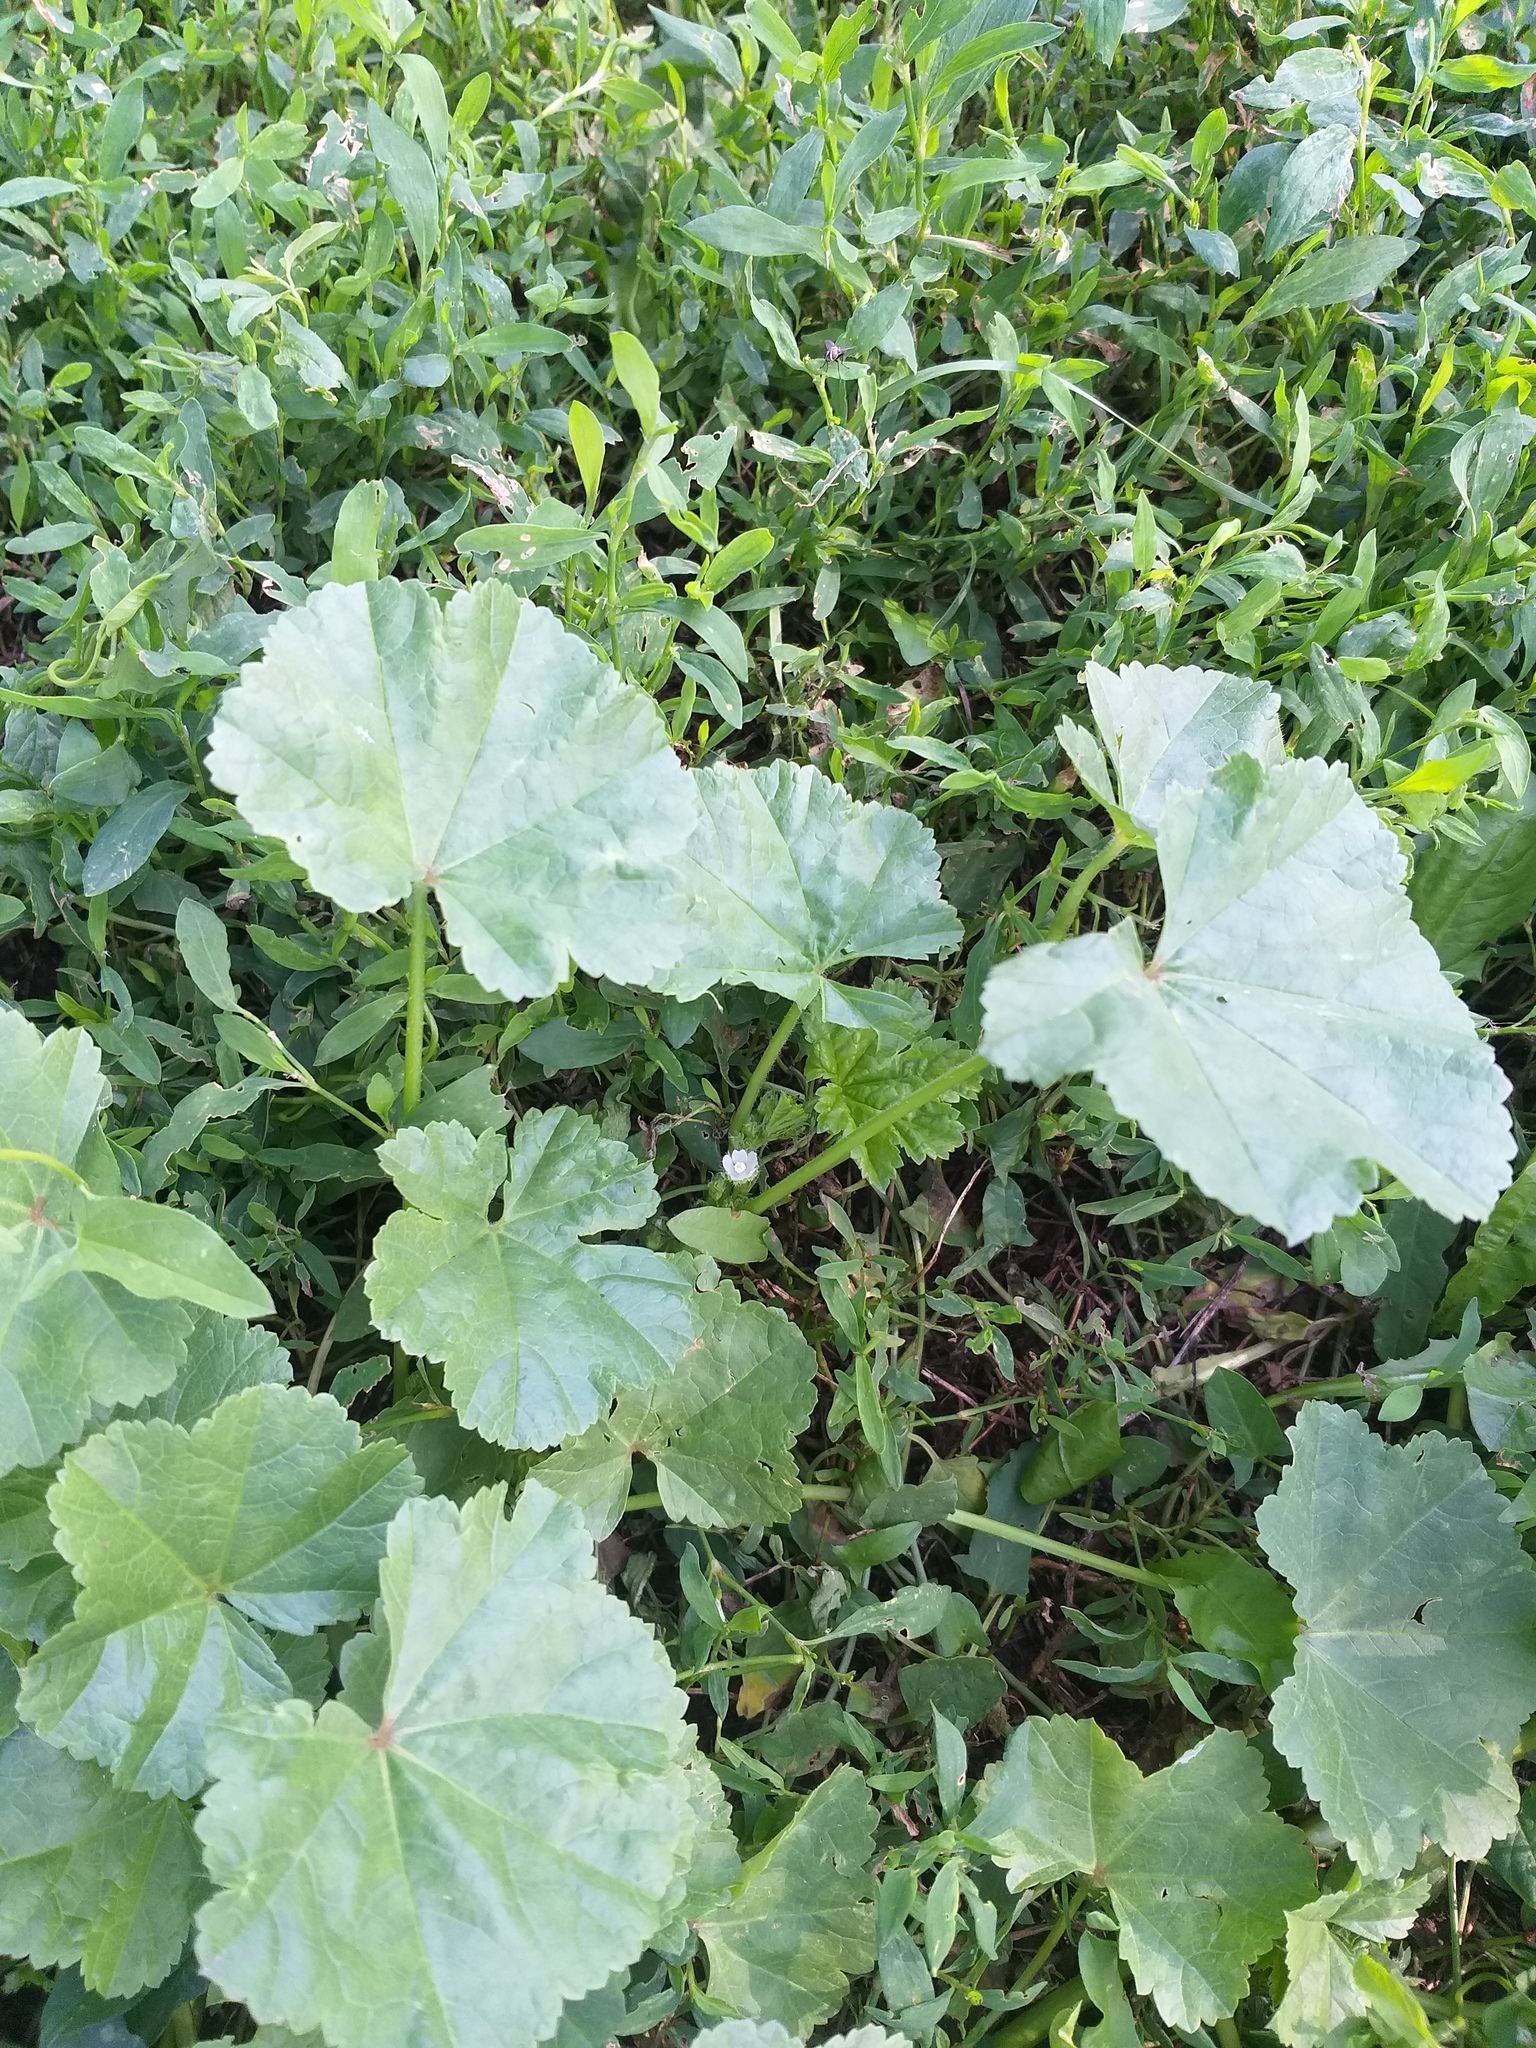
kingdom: Plantae
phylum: Tracheophyta
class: Magnoliopsida
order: Malvales
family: Malvaceae
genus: Malva
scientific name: Malva pusilla
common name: Small mallow
